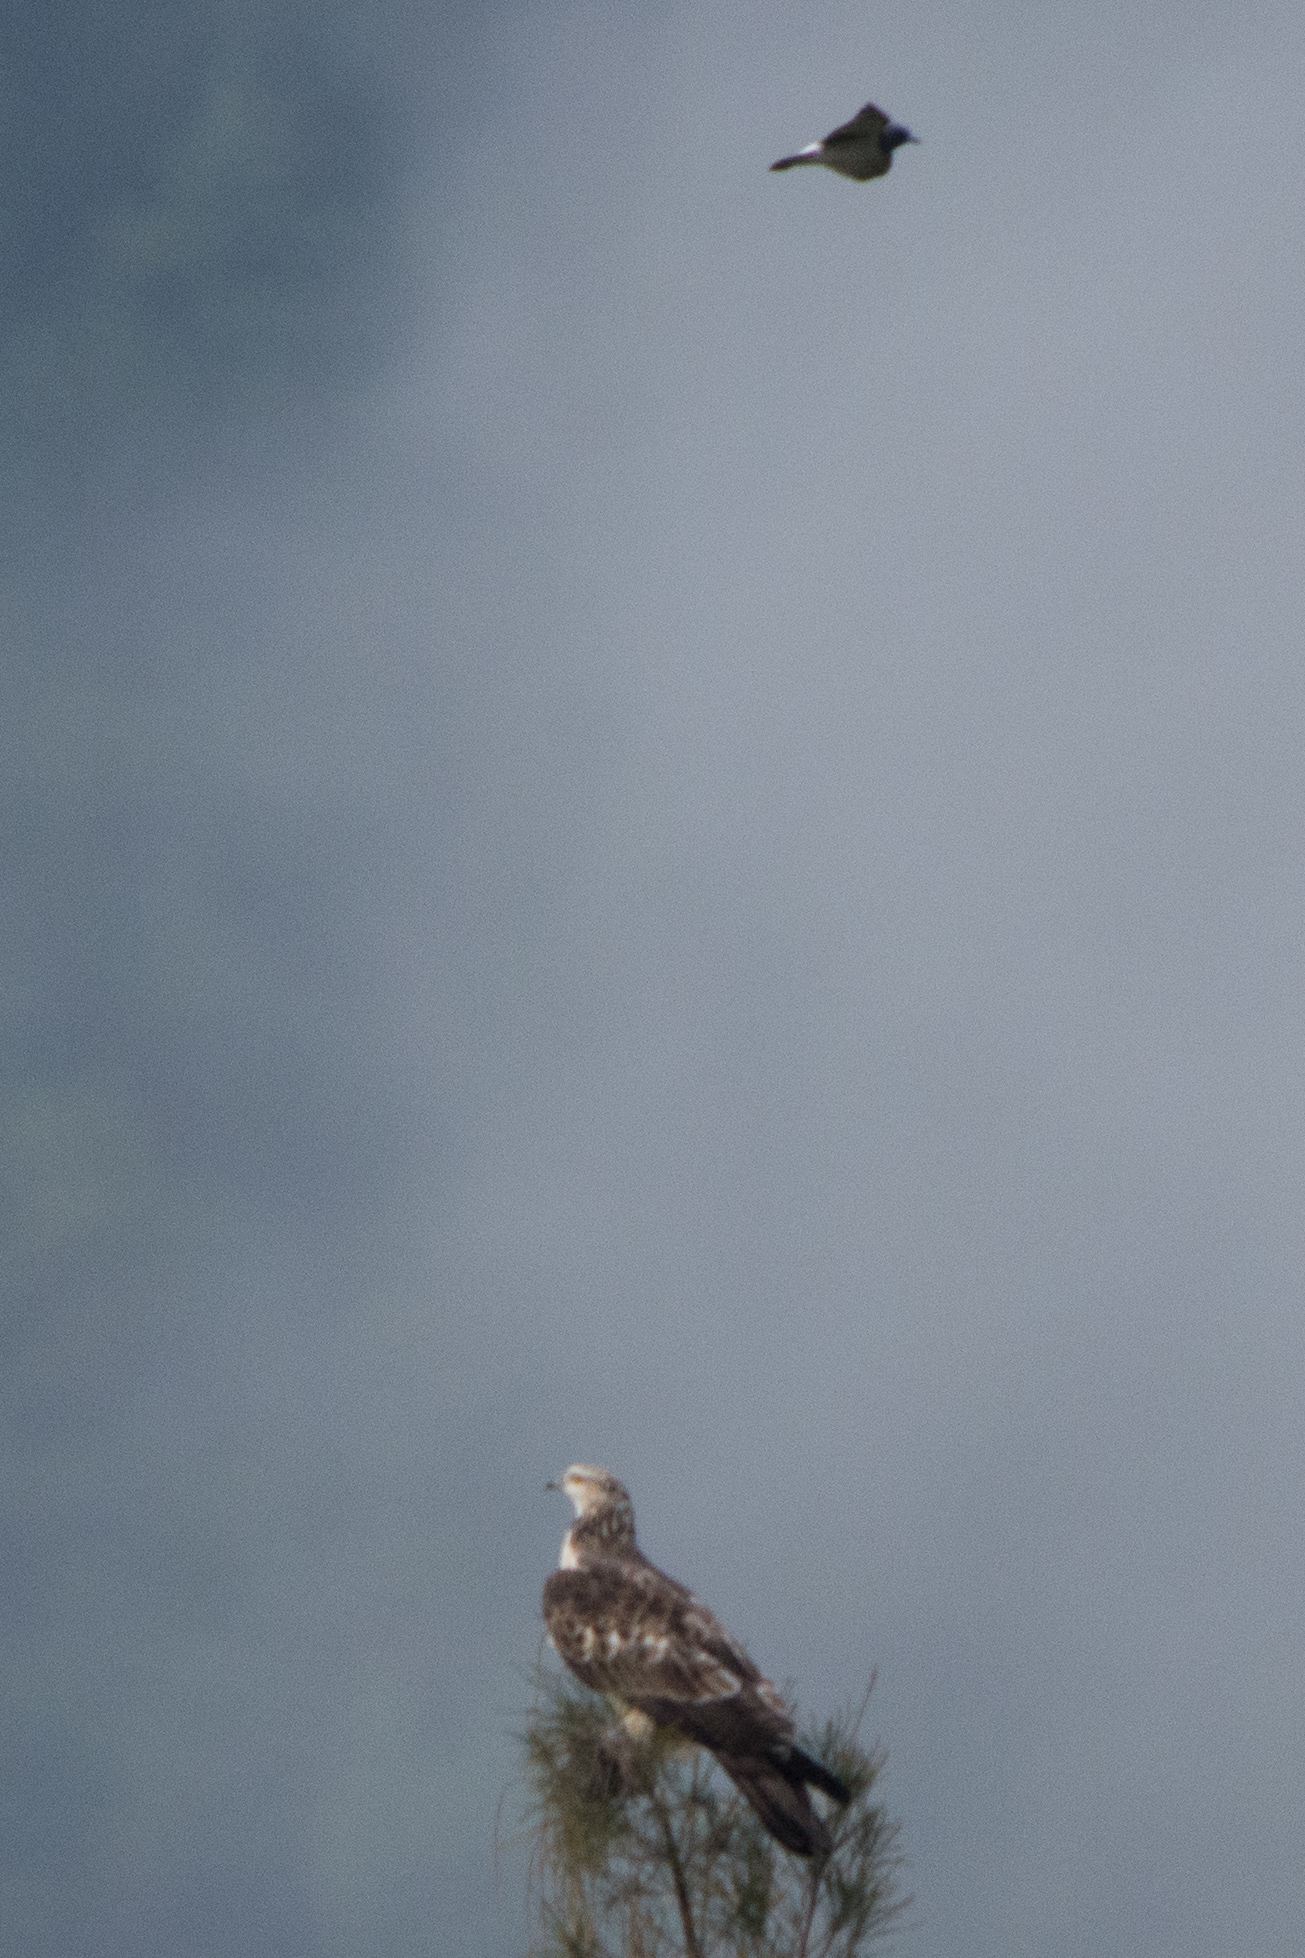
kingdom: Animalia
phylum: Chordata
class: Aves
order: Passeriformes
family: Artamidae
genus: Artamus
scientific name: Artamus leucoryn
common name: White-breasted woodswallow
